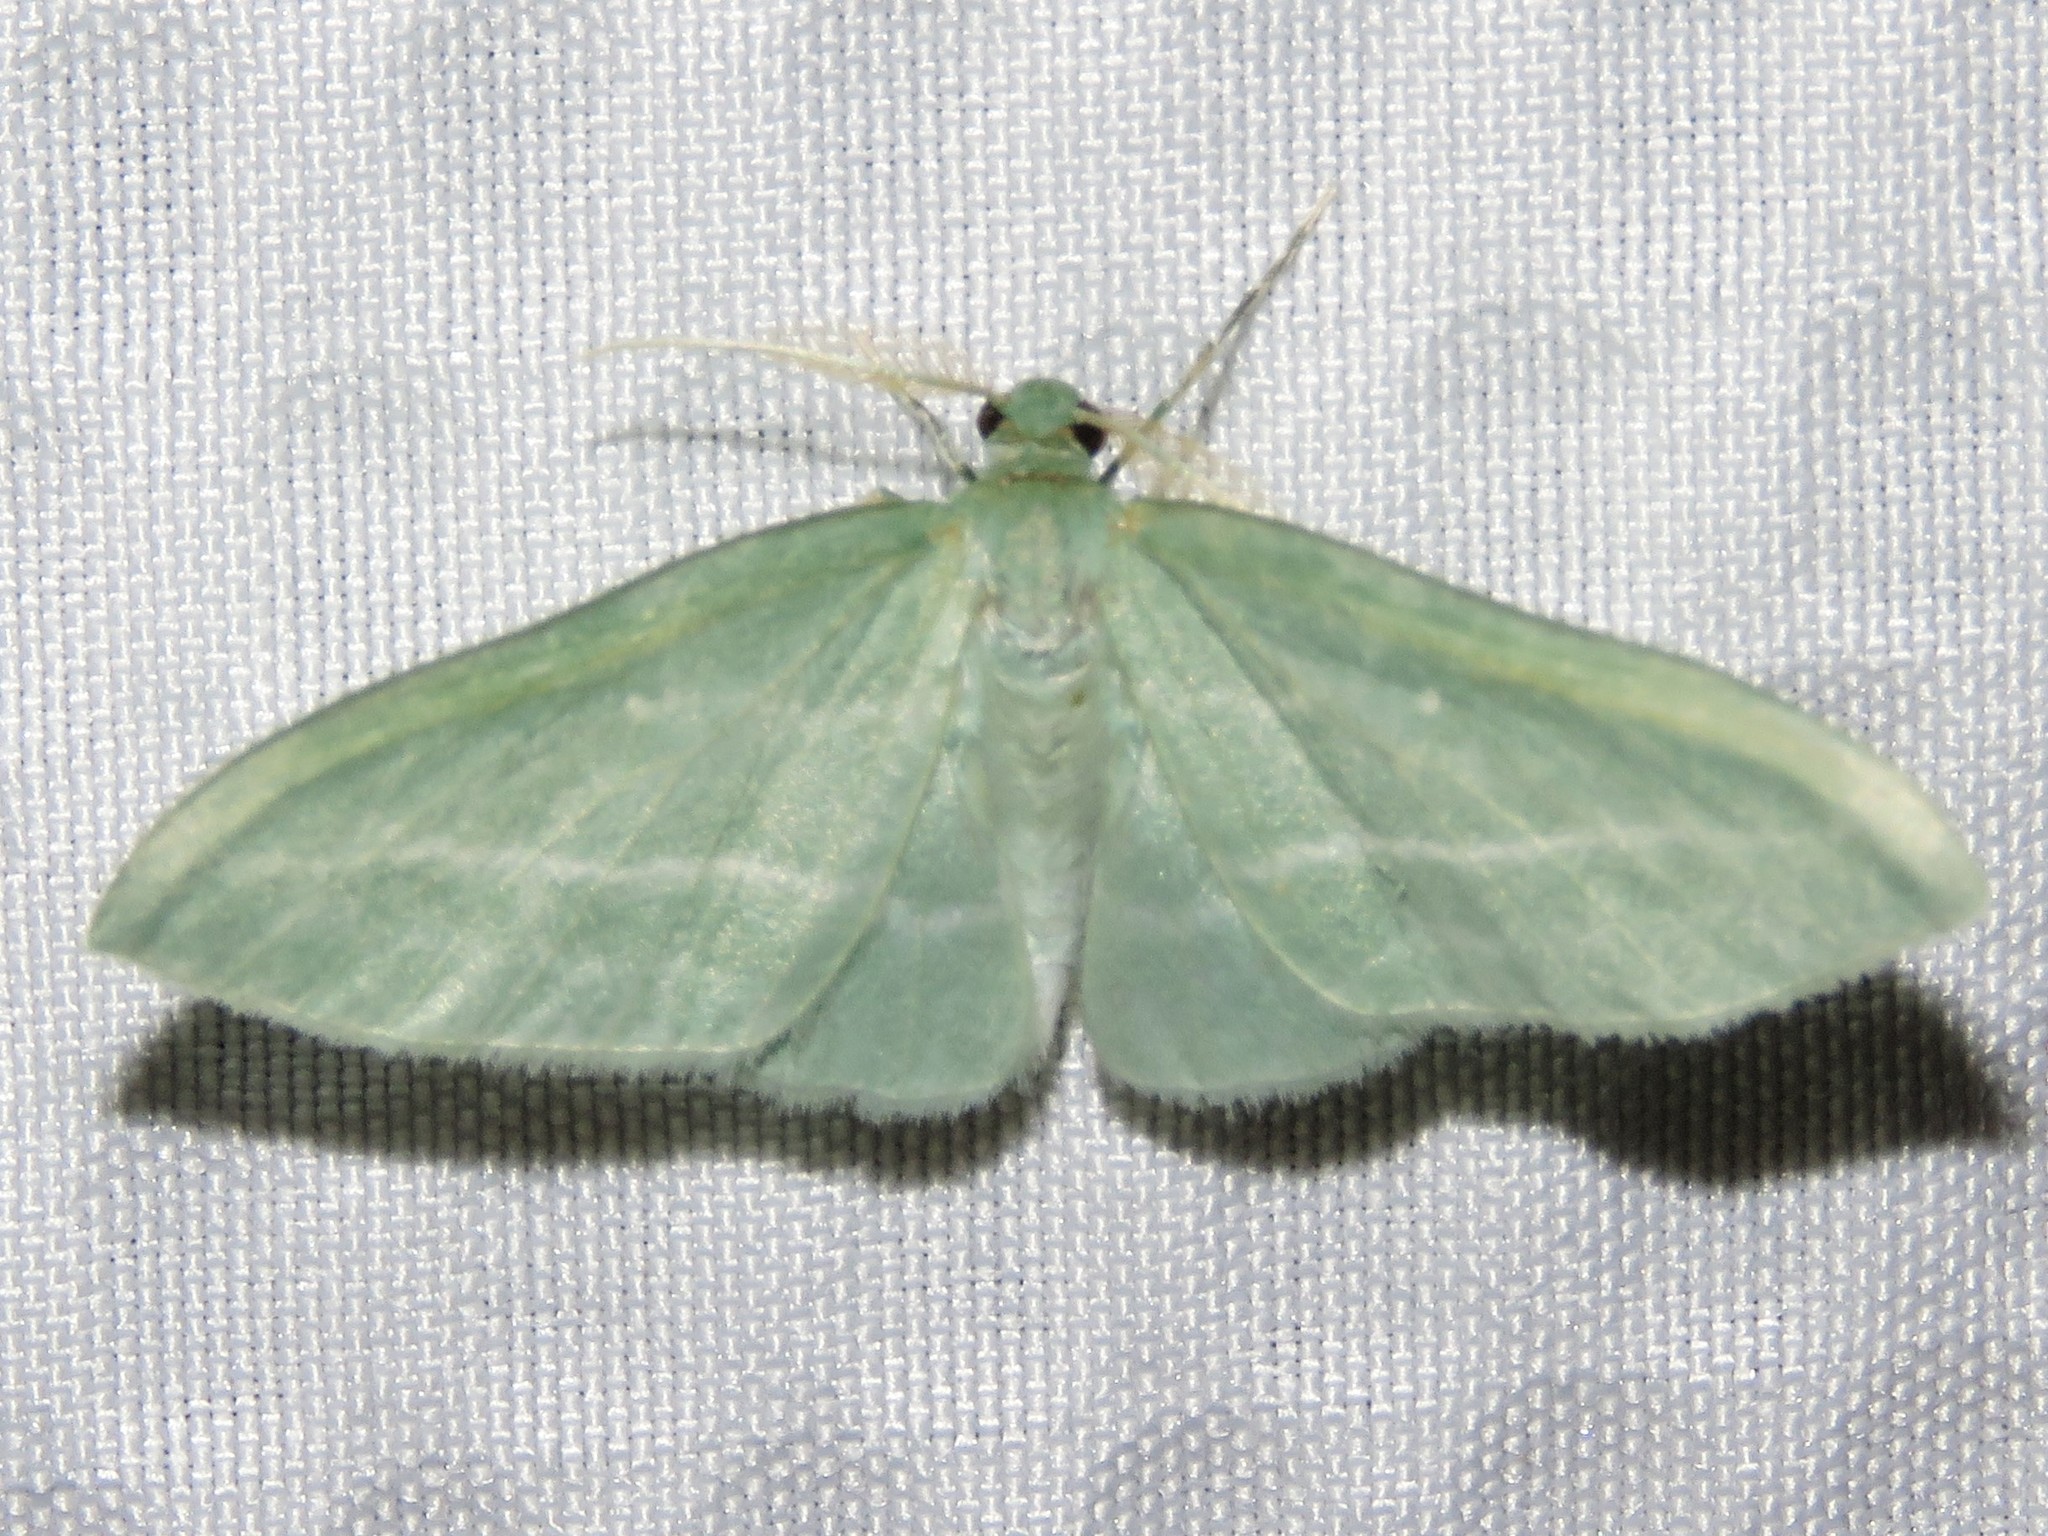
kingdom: Animalia
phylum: Arthropoda
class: Insecta
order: Lepidoptera
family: Geometridae
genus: Dyspteris
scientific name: Dyspteris abortivaria
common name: Bad-wing
